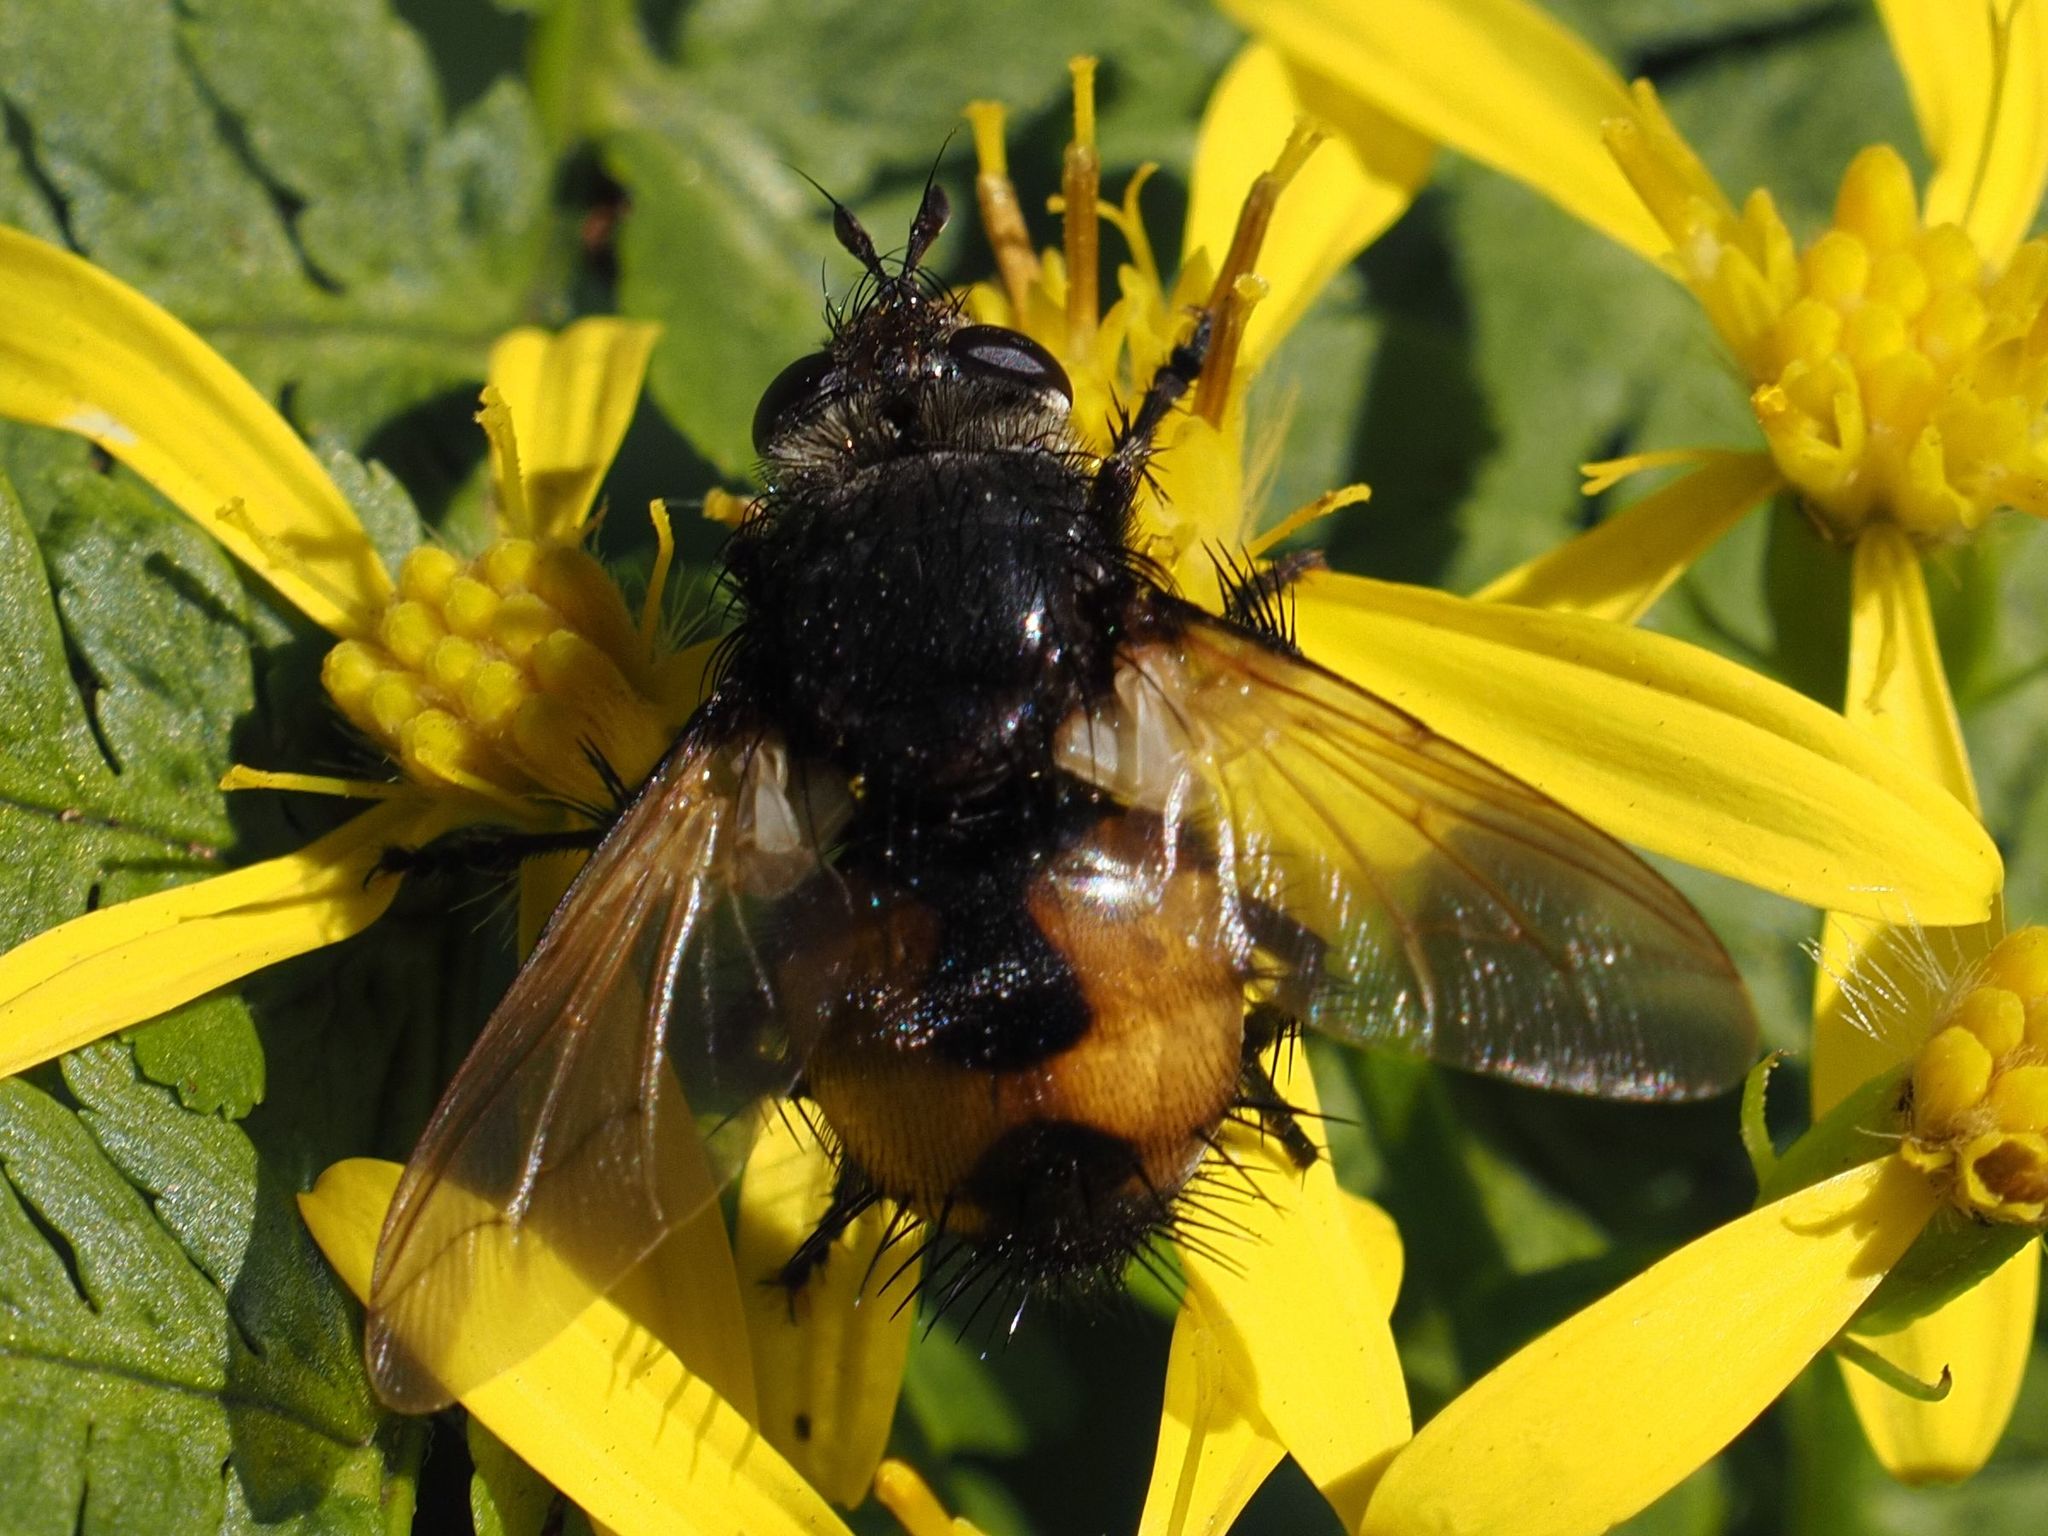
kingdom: Animalia
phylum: Arthropoda
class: Insecta
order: Diptera
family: Tachinidae
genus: Nowickia
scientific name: Nowickia ferox
